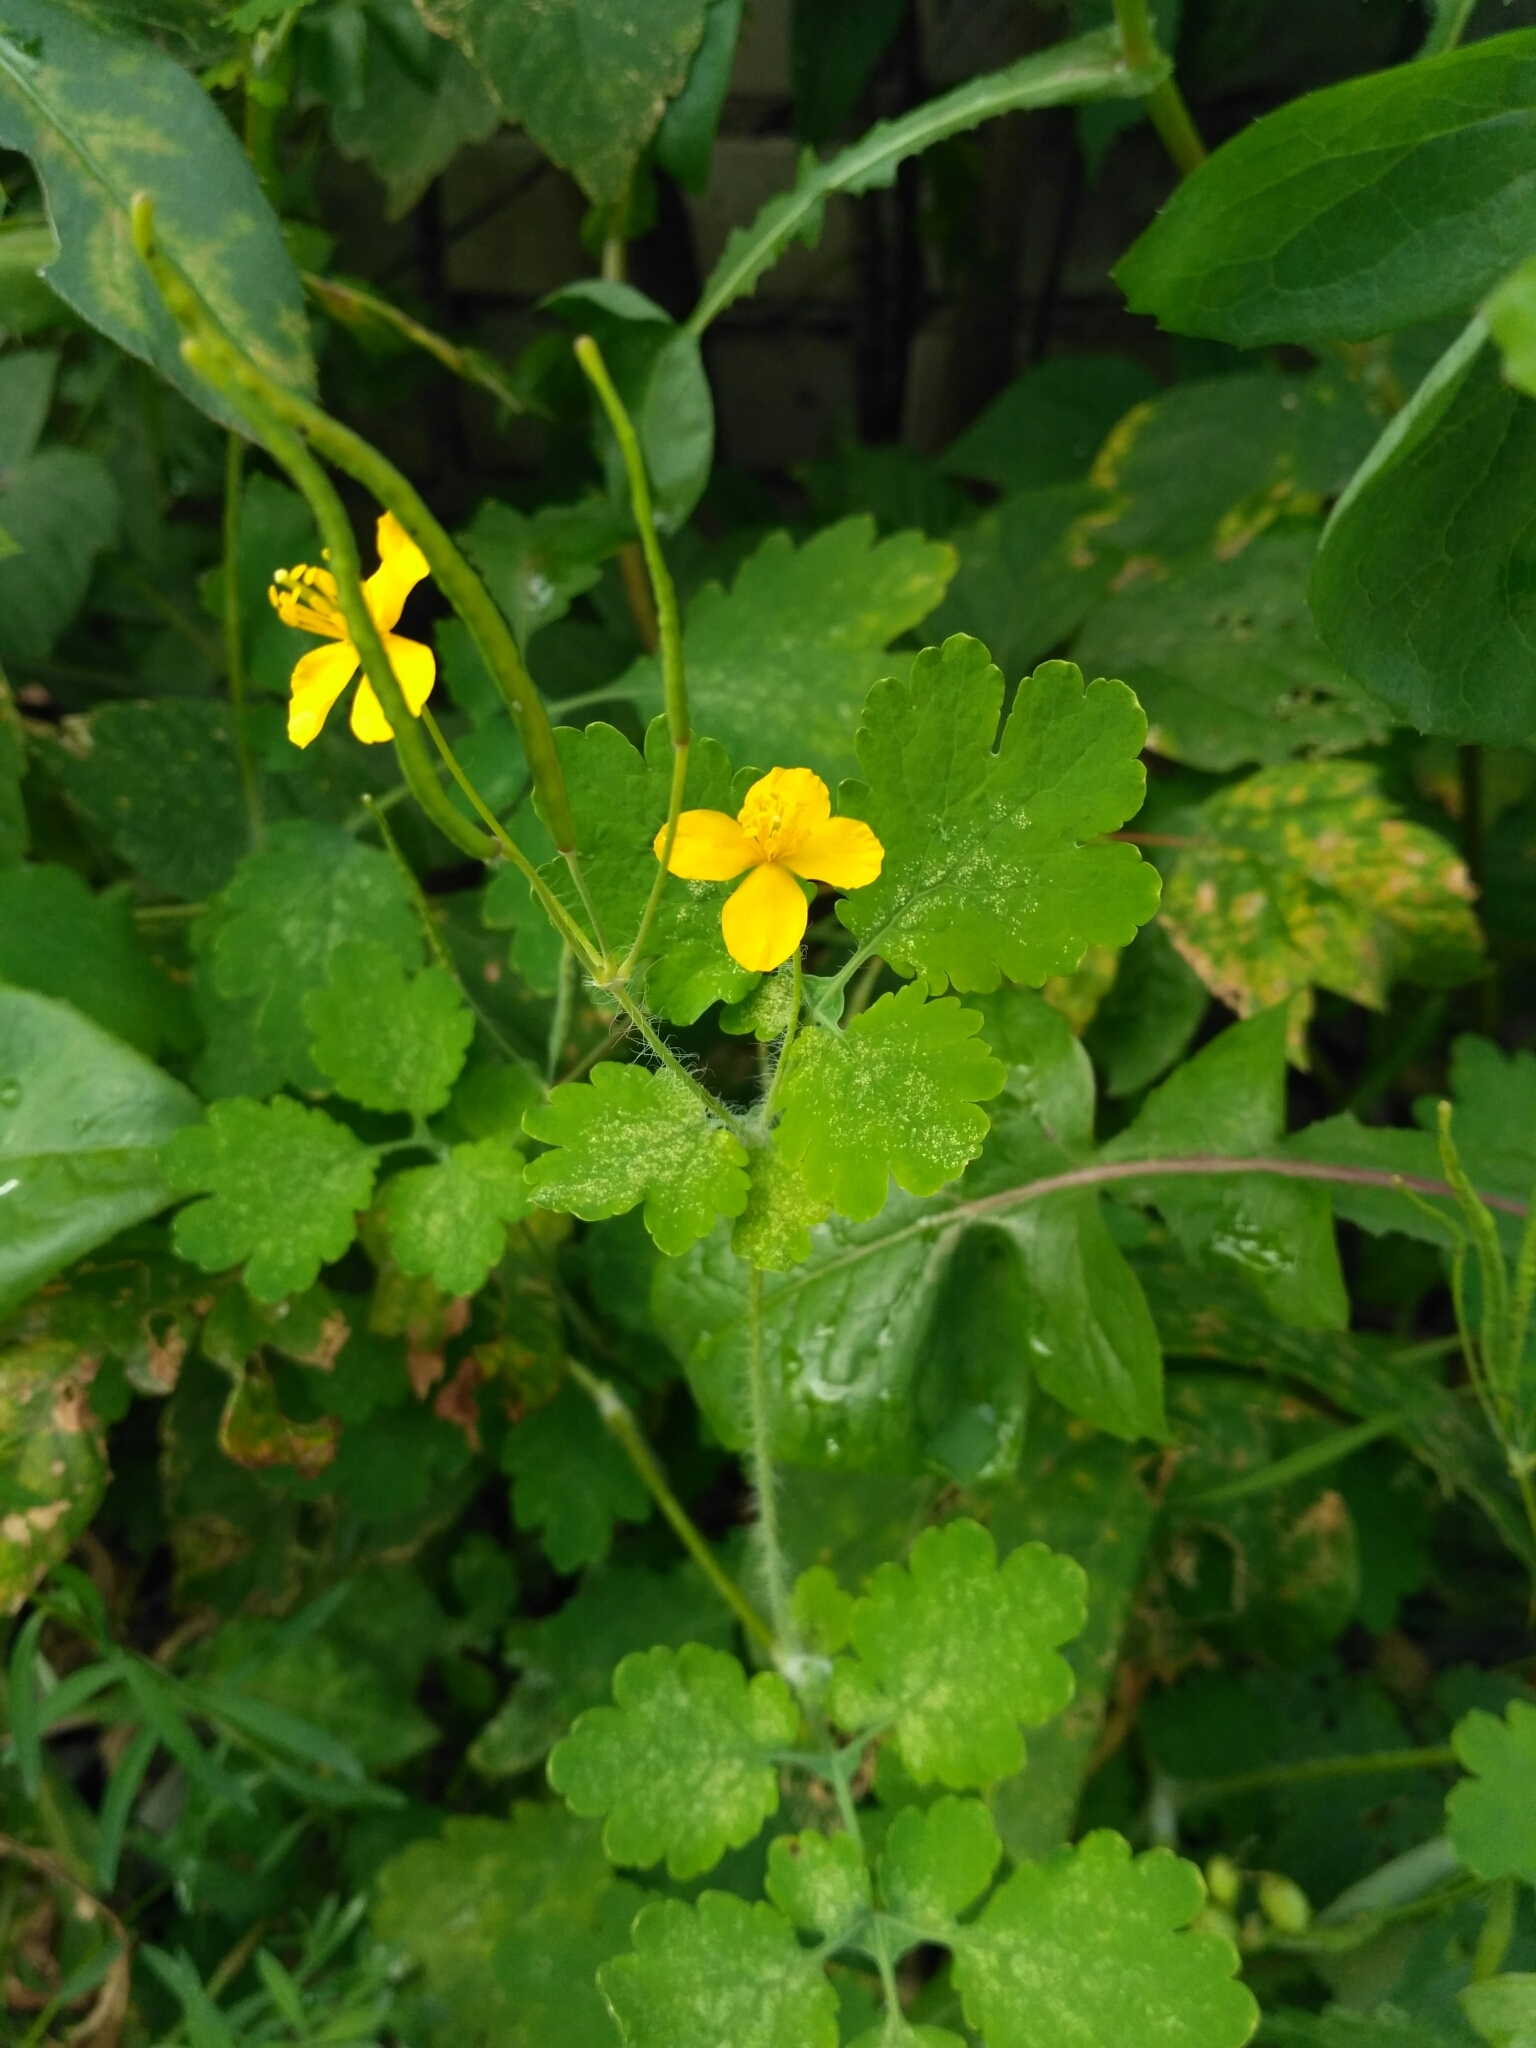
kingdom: Plantae
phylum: Tracheophyta
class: Magnoliopsida
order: Ranunculales
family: Papaveraceae
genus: Chelidonium
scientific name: Chelidonium majus
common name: Greater celandine
